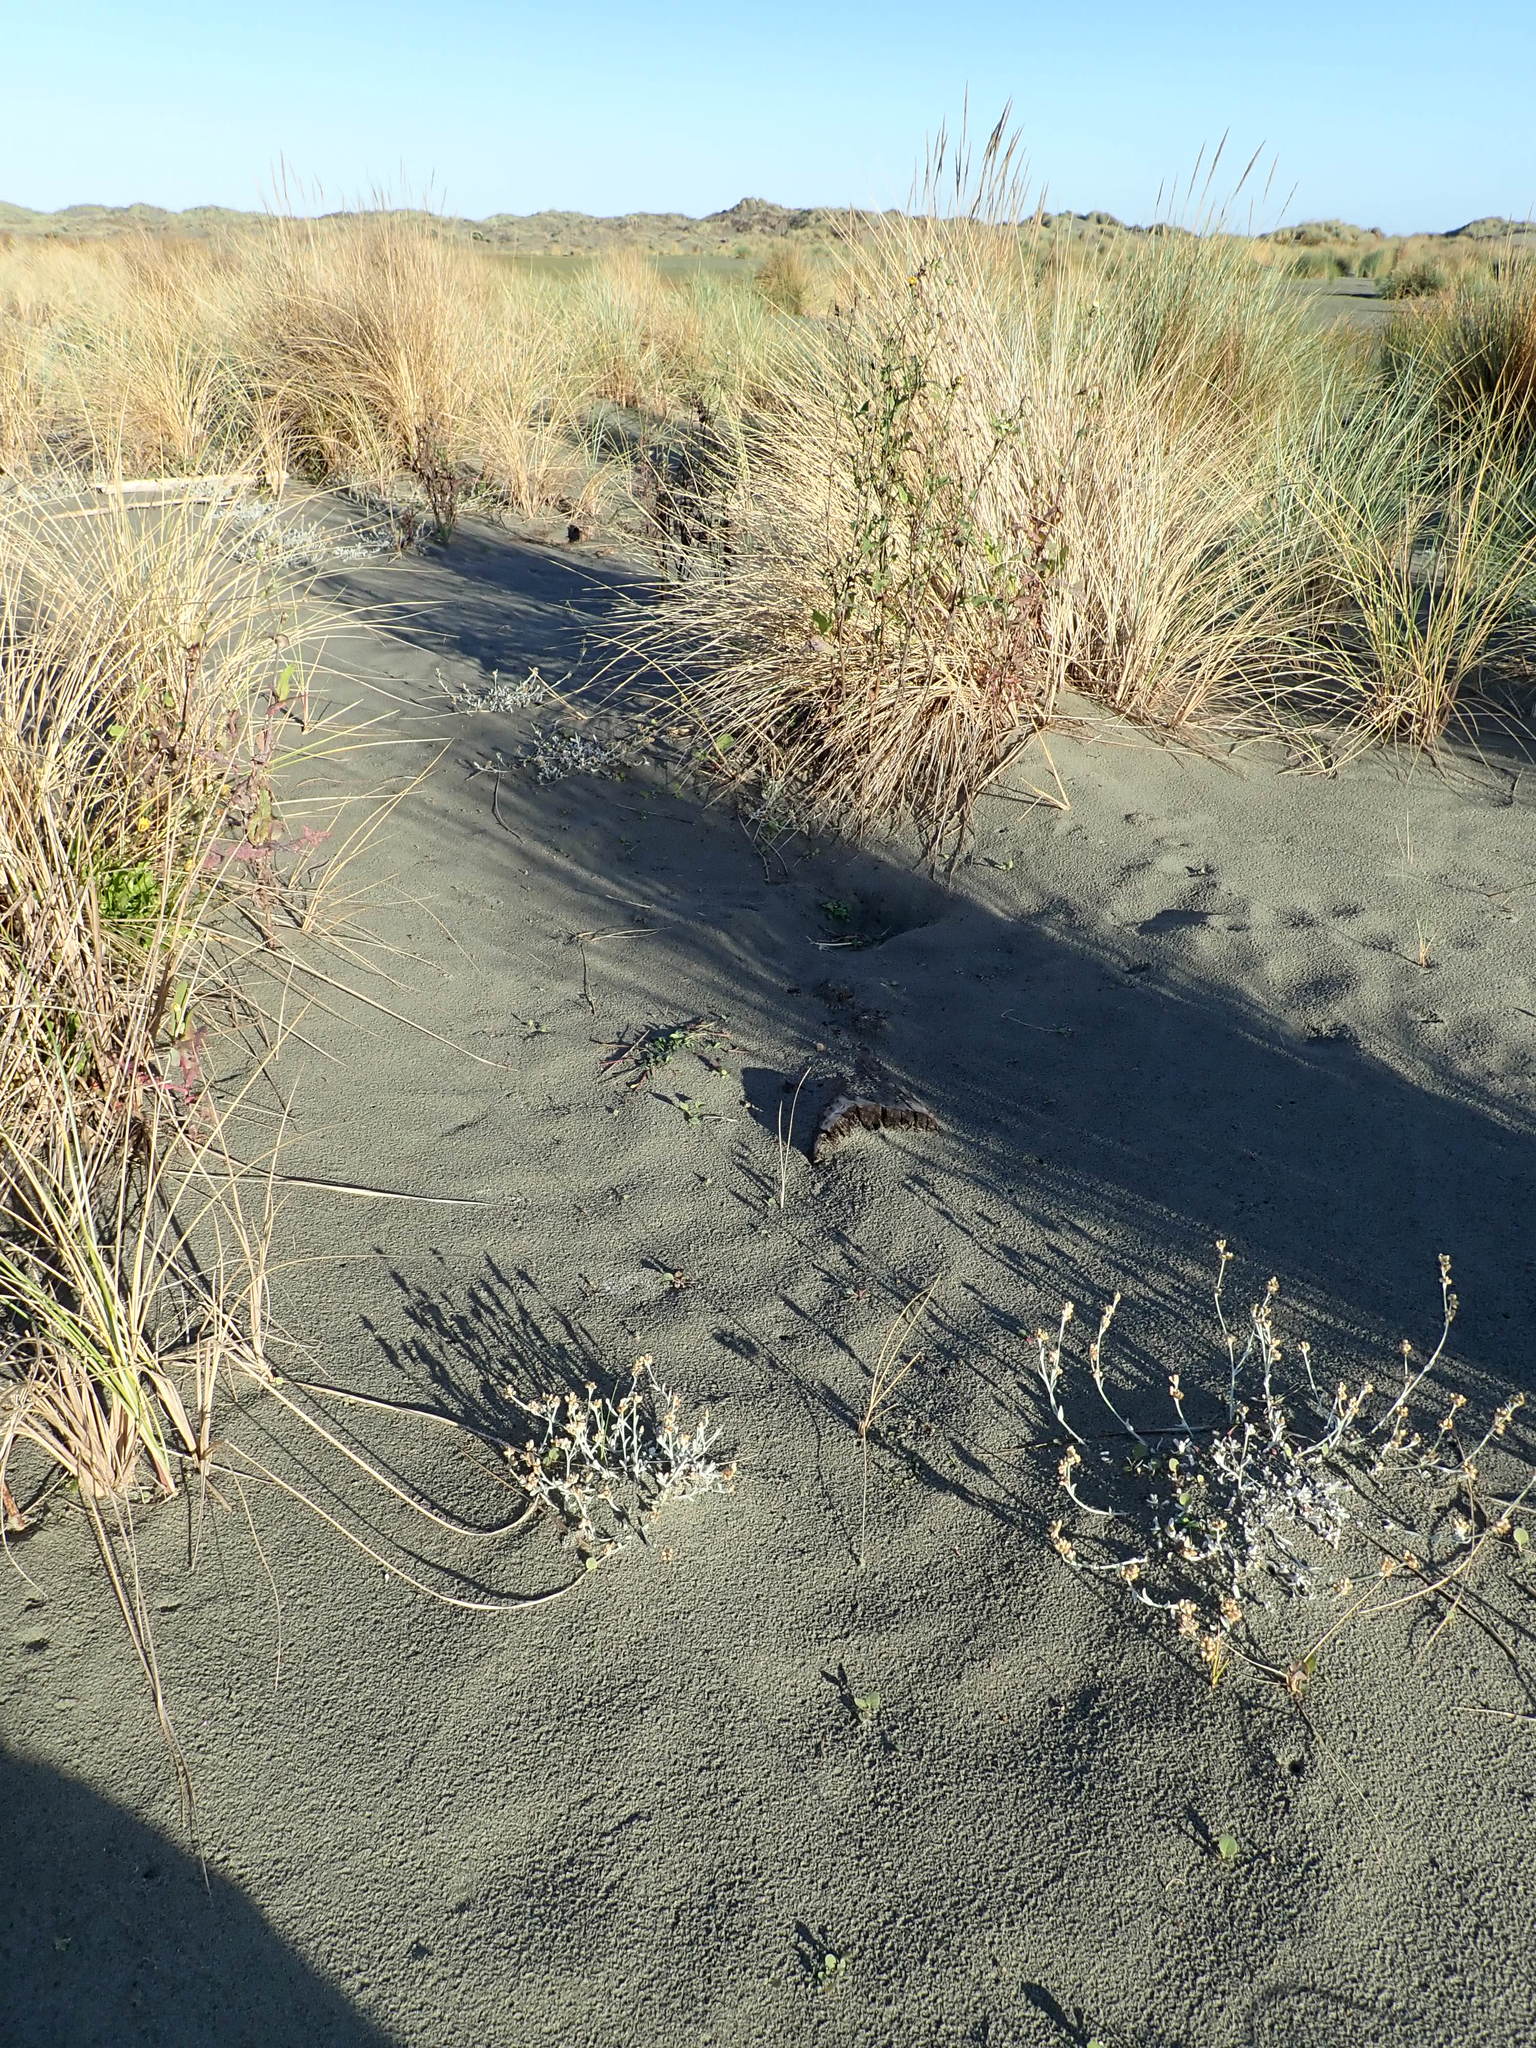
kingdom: Plantae
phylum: Tracheophyta
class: Magnoliopsida
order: Asterales
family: Asteraceae
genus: Helichrysum
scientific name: Helichrysum luteoalbum
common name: Daisy
